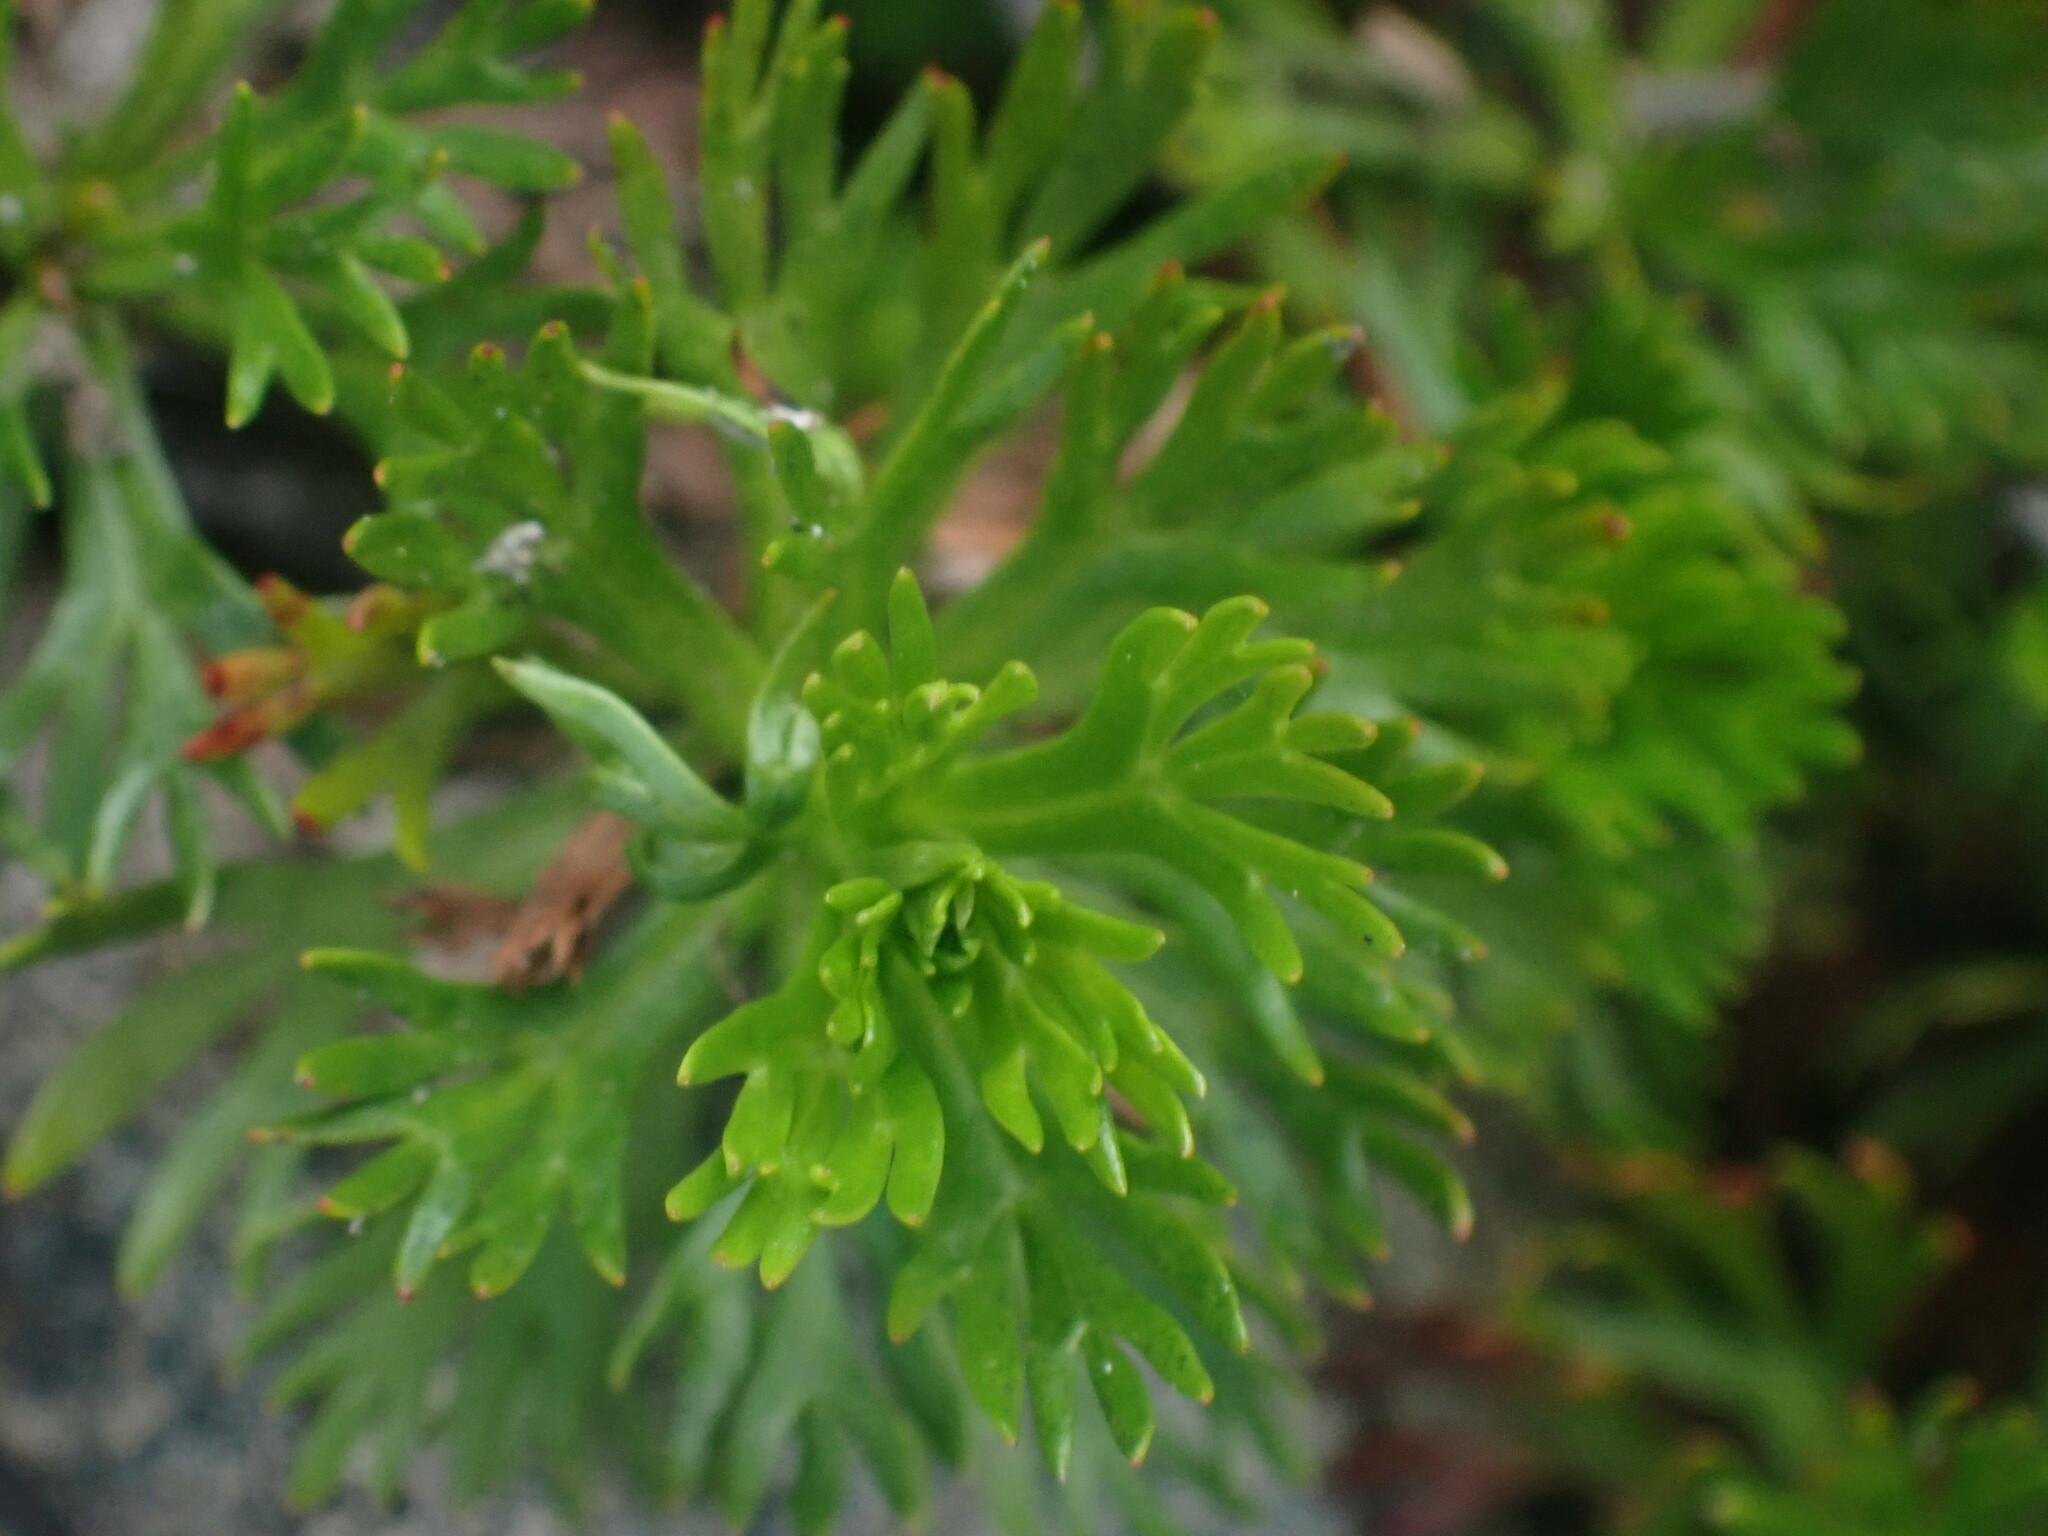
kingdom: Plantae
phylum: Tracheophyta
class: Magnoliopsida
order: Rosales
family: Rosaceae
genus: Luetkea
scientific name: Luetkea pectinata
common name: Partridgefoot
